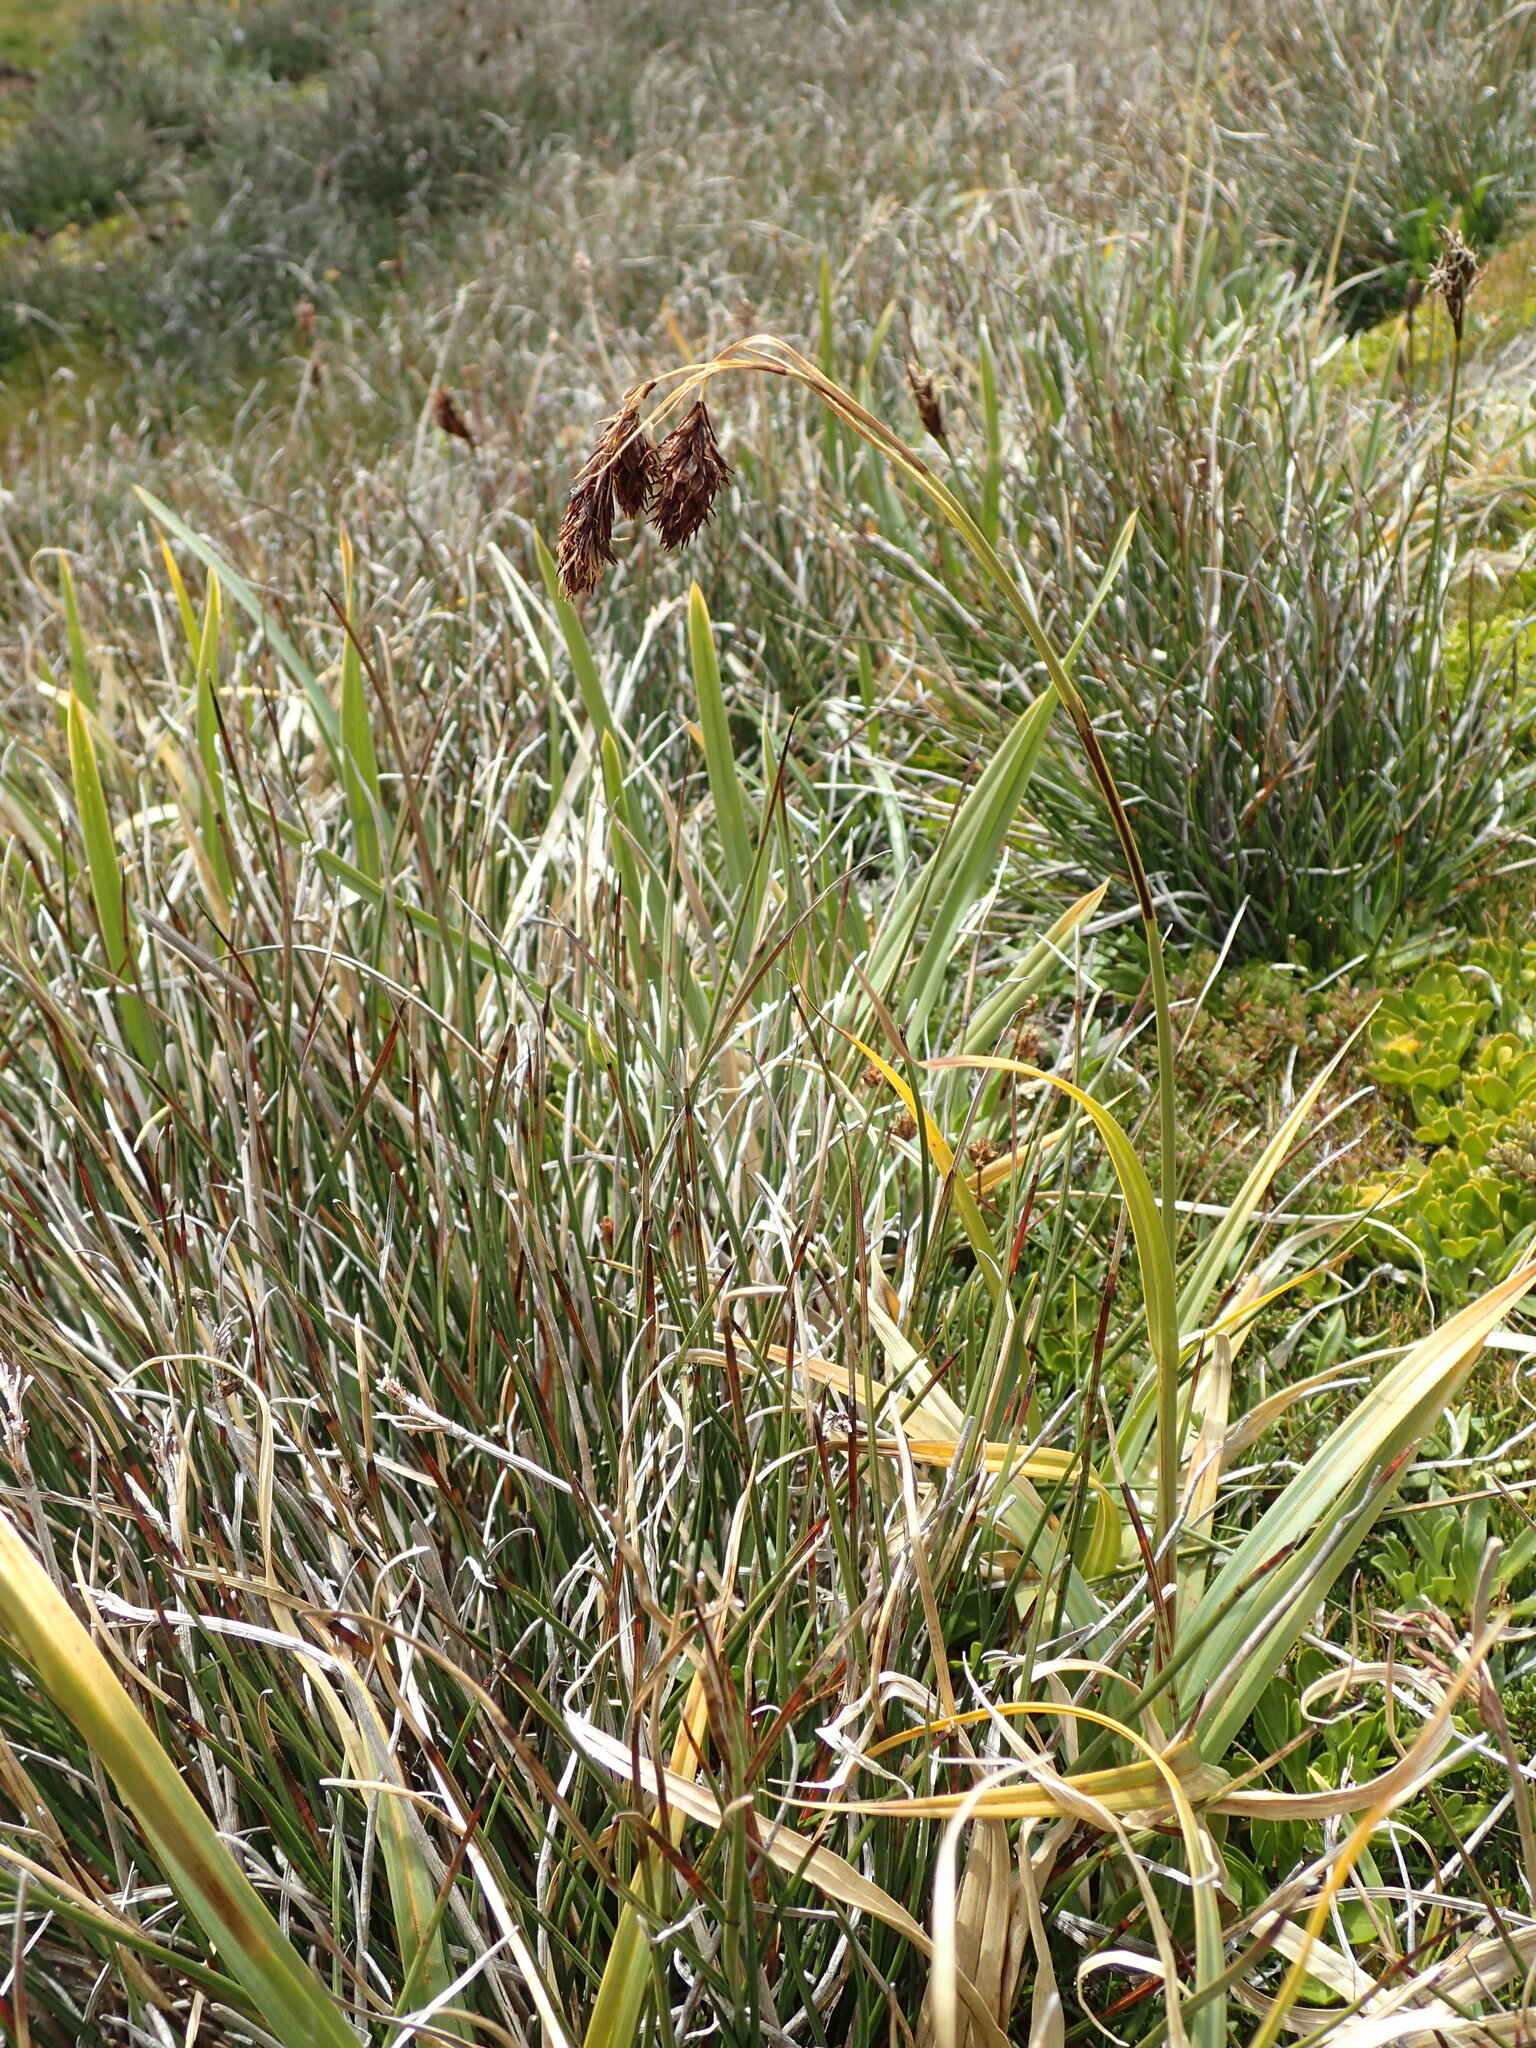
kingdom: Plantae
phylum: Tracheophyta
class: Liliopsida
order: Poales
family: Cyperaceae
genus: Carex
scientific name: Carex banksii
